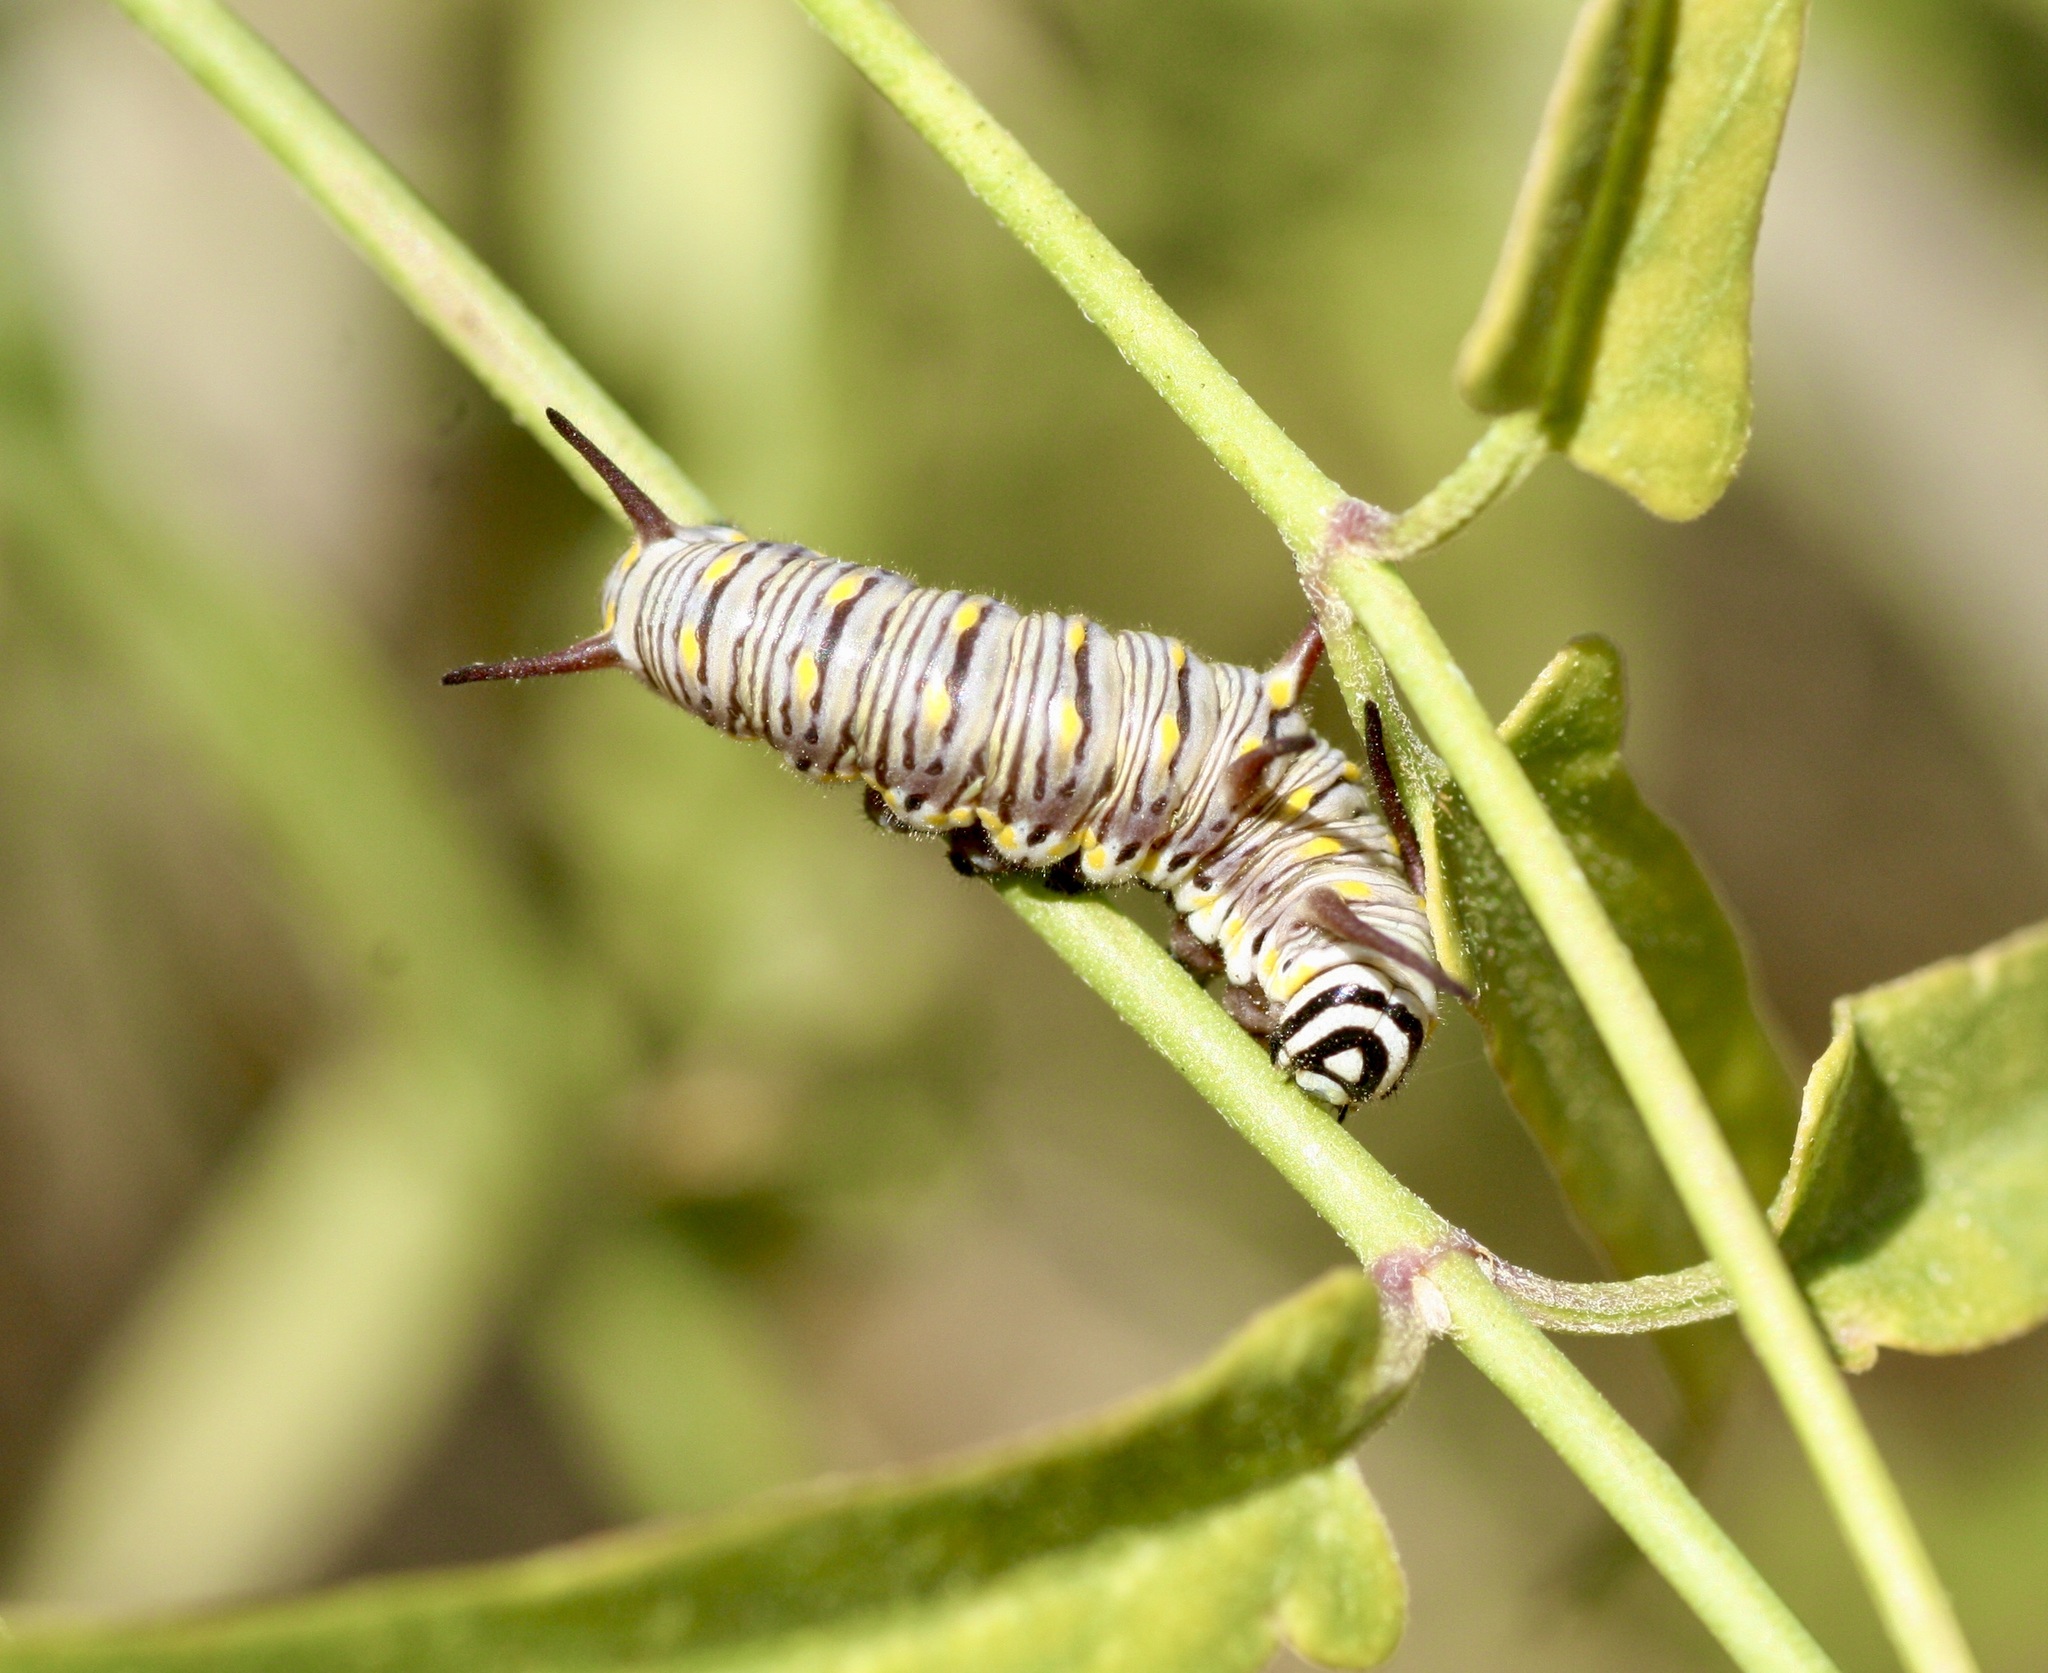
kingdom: Animalia
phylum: Arthropoda
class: Insecta
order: Lepidoptera
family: Nymphalidae
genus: Danaus
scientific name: Danaus gilippus
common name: Queen
